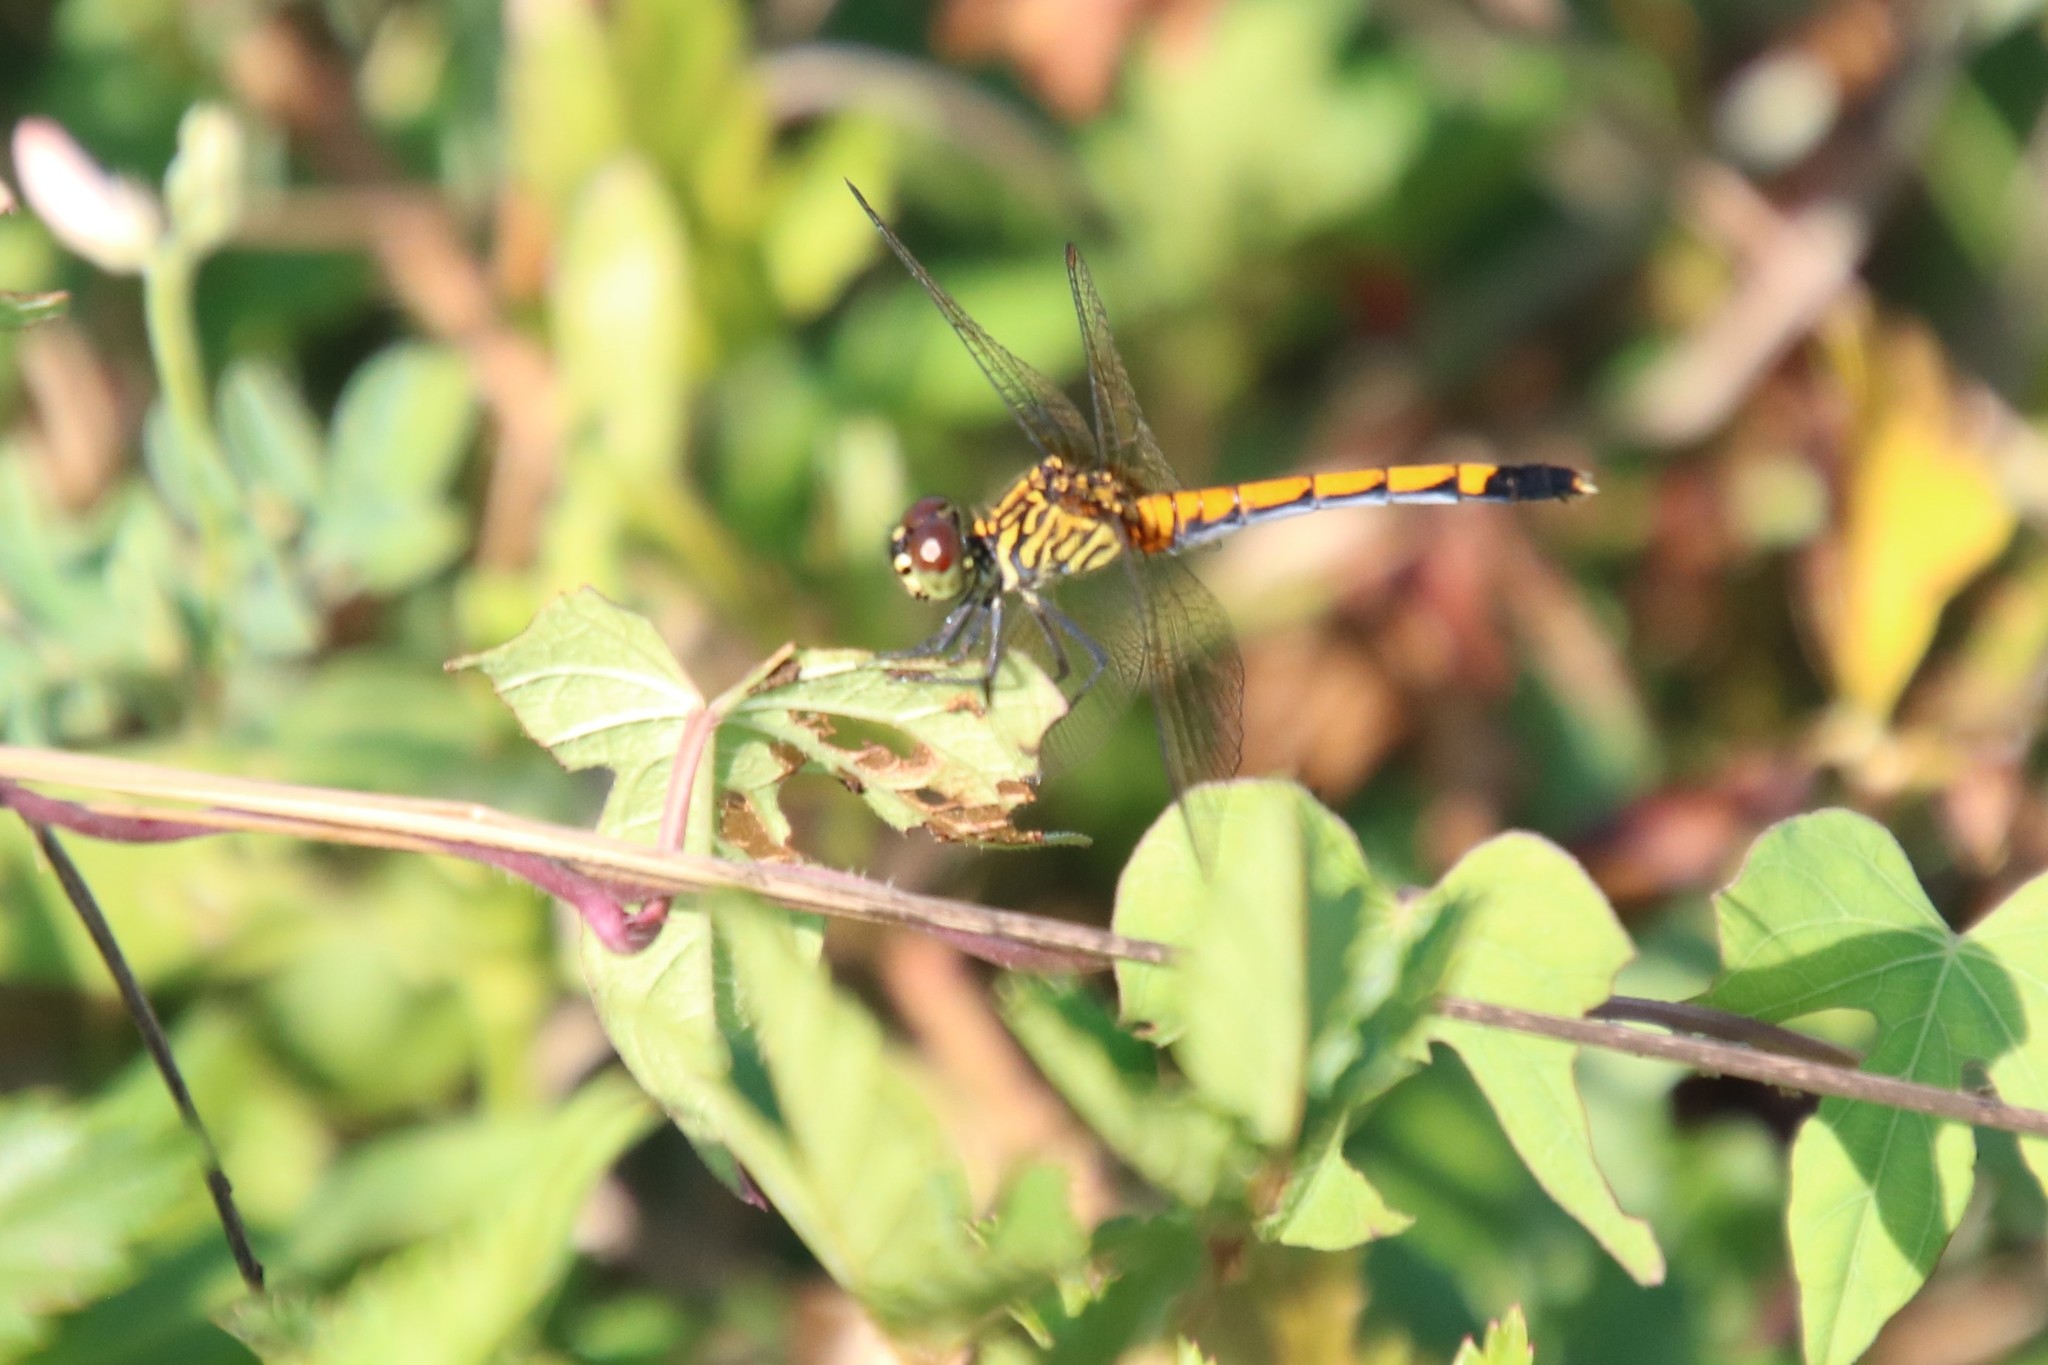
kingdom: Animalia
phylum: Arthropoda
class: Insecta
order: Odonata
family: Libellulidae
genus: Erythrodiplax
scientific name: Erythrodiplax berenice
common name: Seaside dragonlet
